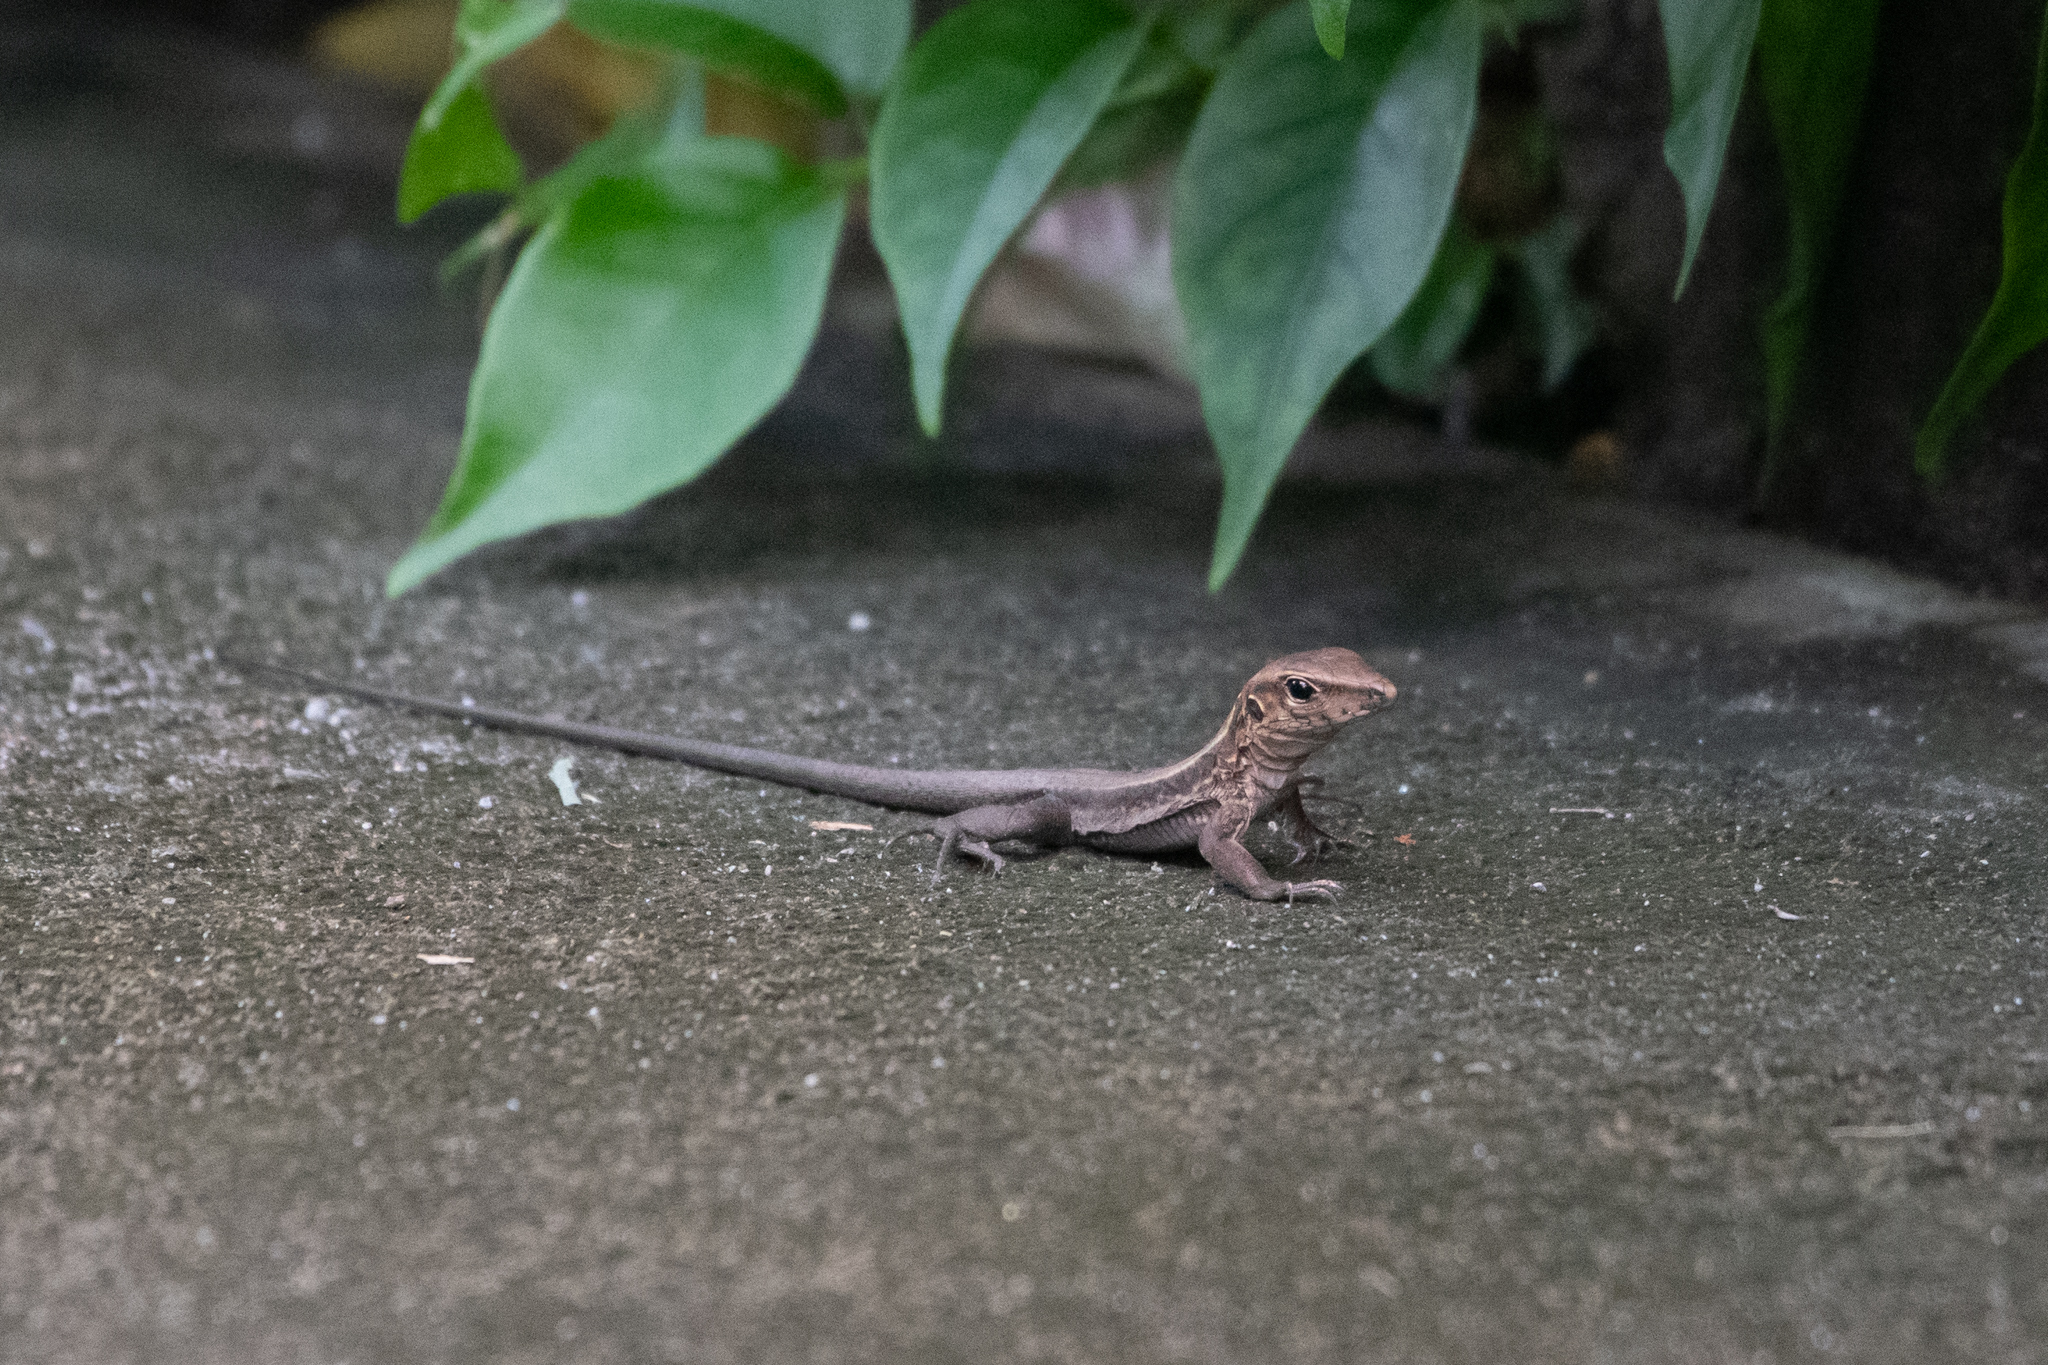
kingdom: Animalia
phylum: Chordata
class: Squamata
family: Teiidae
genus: Pholidoscelis
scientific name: Pholidoscelis fuscatus
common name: Dominican ameiva
